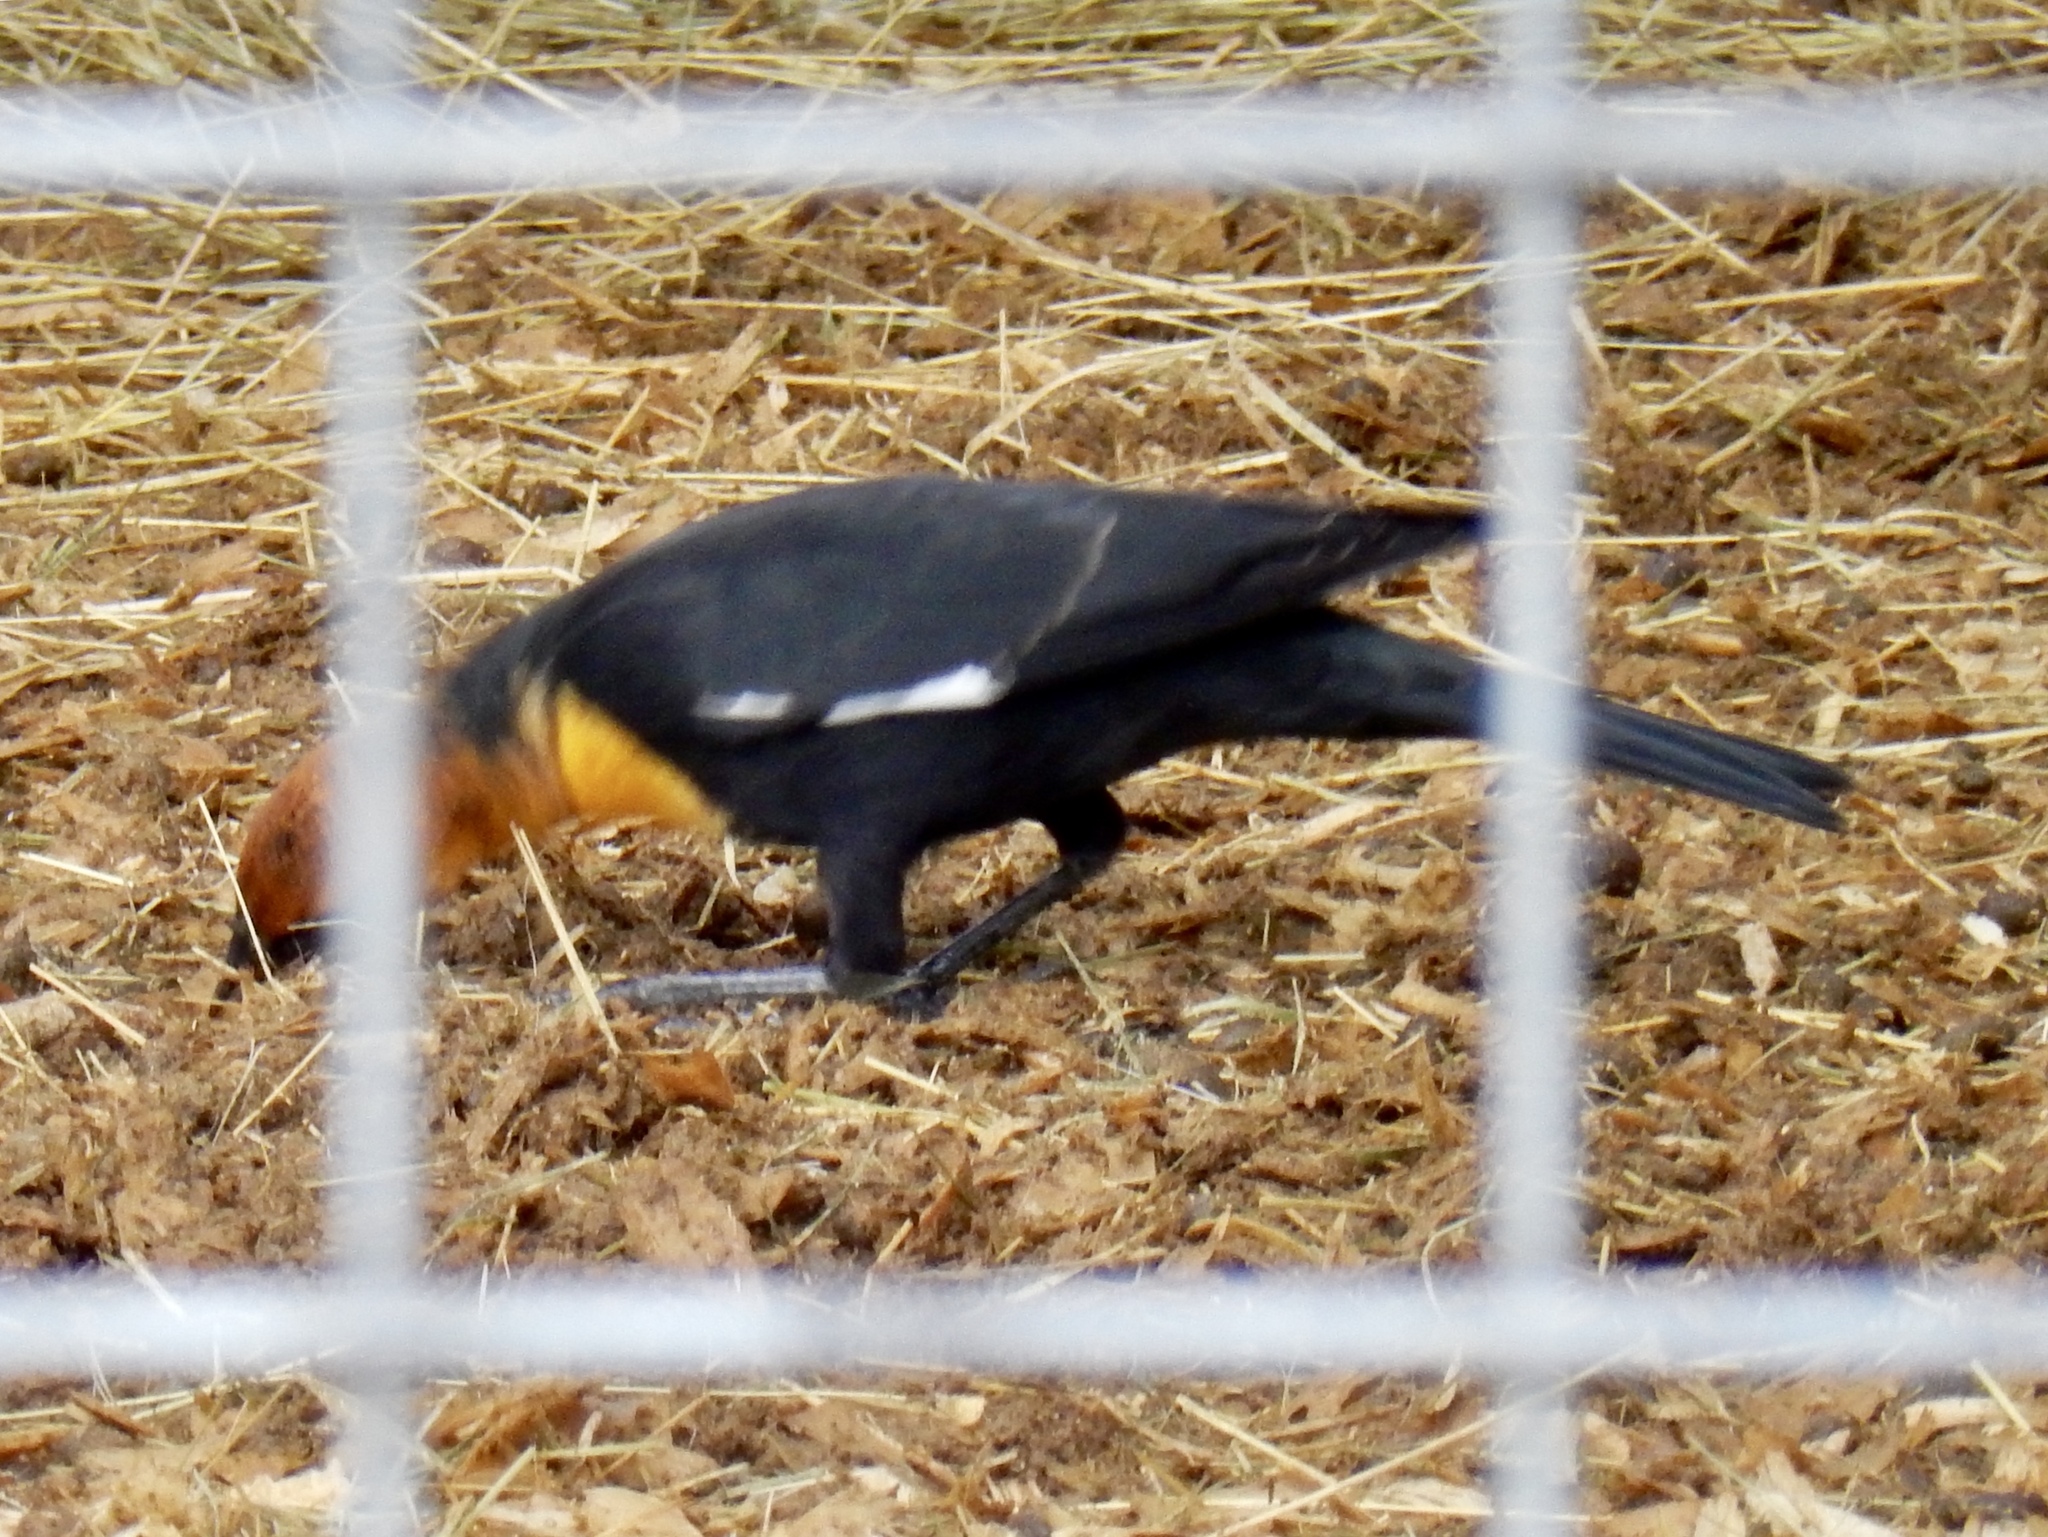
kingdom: Animalia
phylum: Chordata
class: Aves
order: Passeriformes
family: Icteridae
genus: Xanthocephalus
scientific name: Xanthocephalus xanthocephalus
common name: Yellow-headed blackbird
